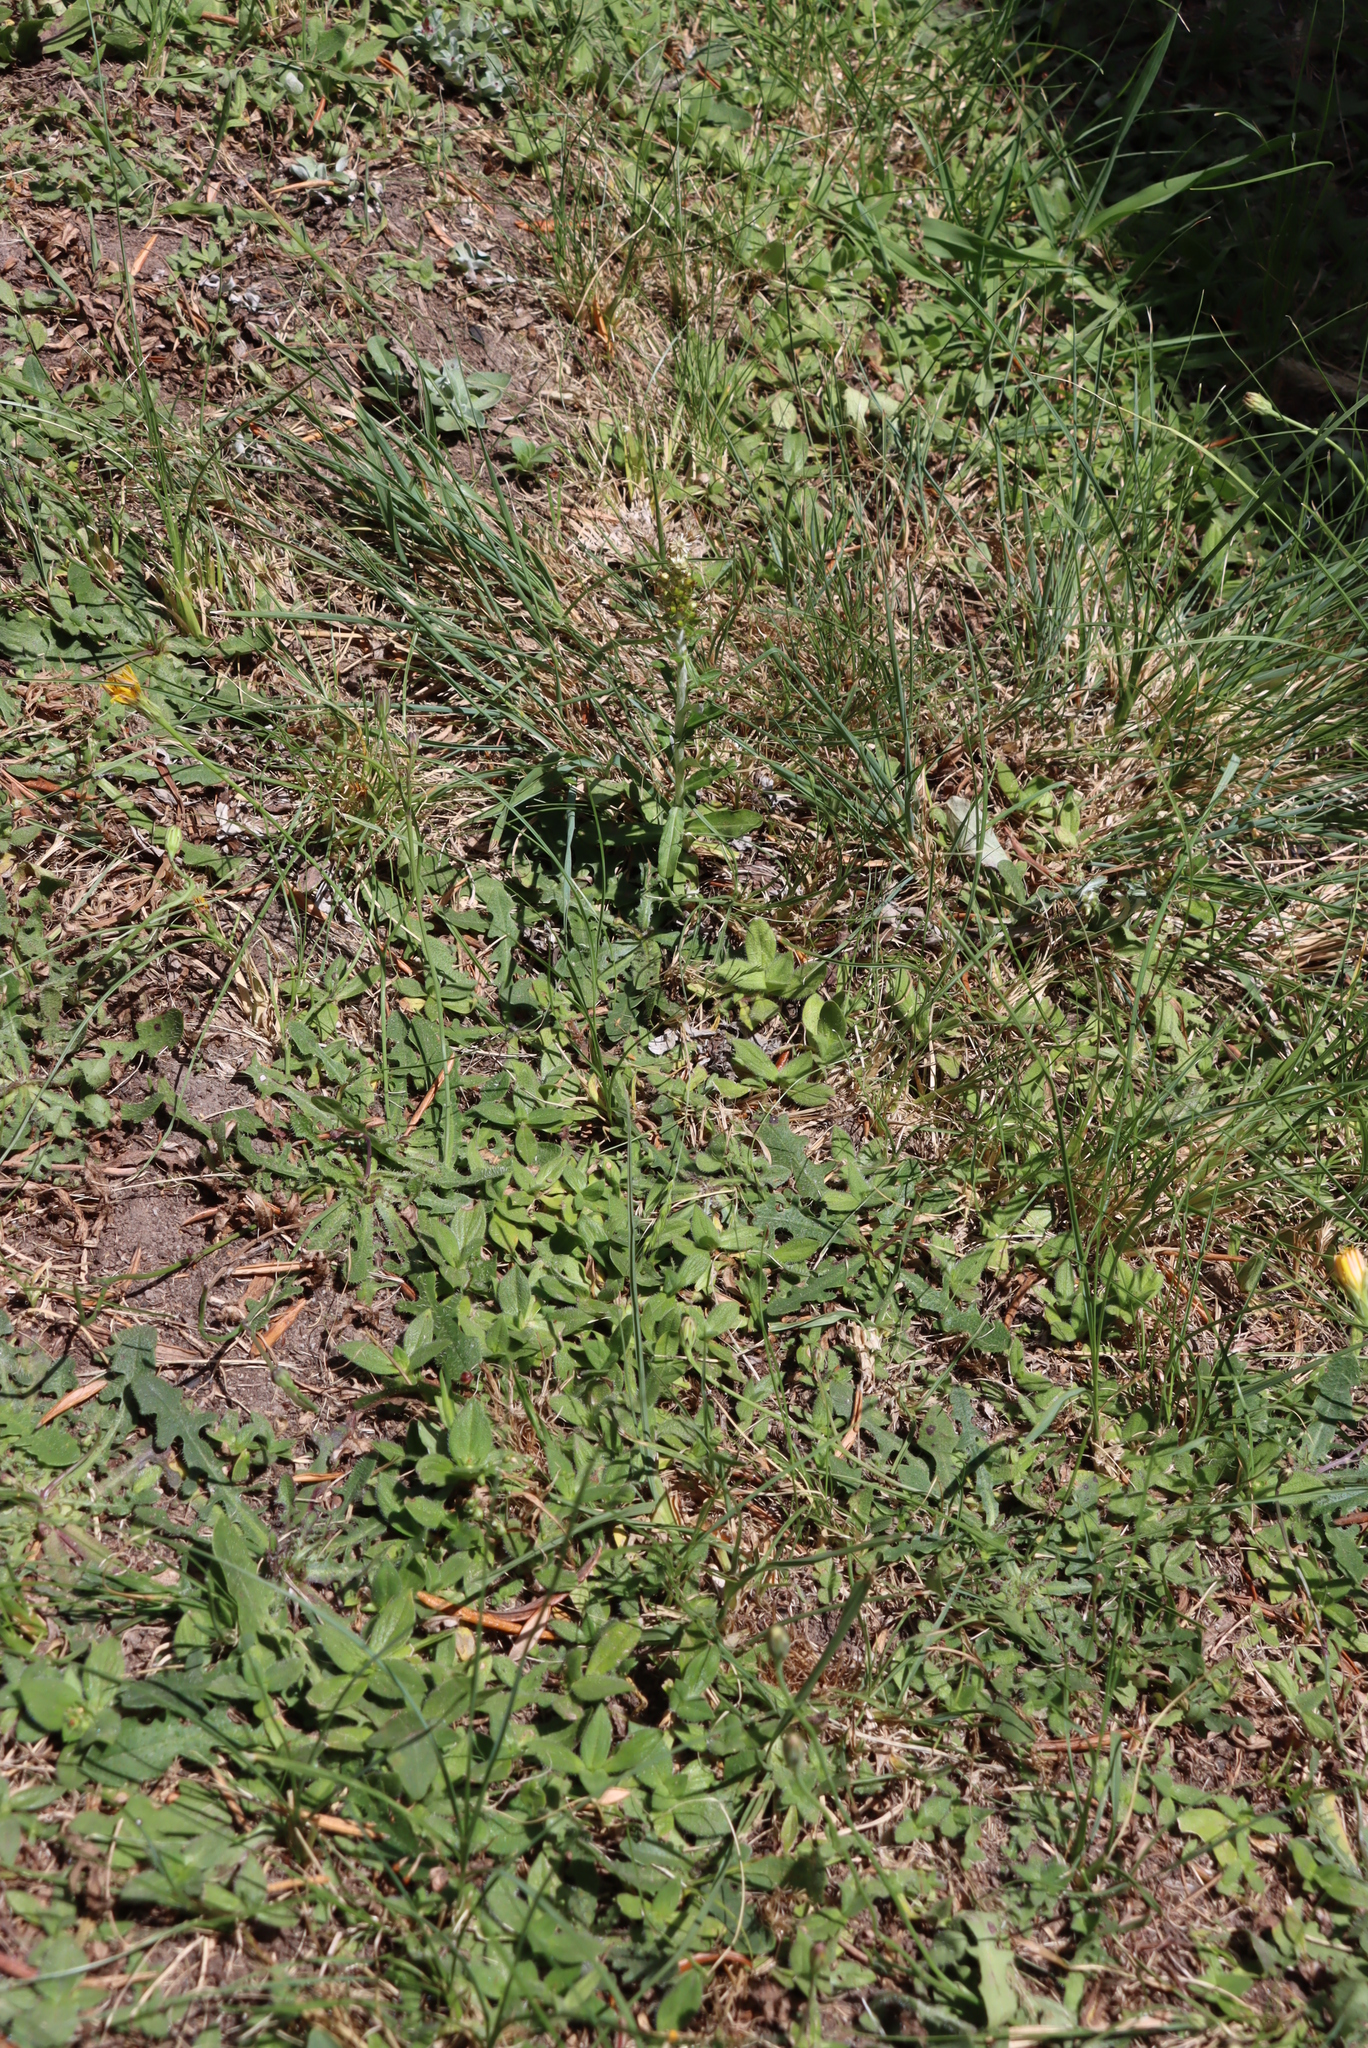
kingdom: Plantae
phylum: Tracheophyta
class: Magnoliopsida
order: Asterales
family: Asteraceae
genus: Hypochaeris
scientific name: Hypochaeris radicata
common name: Flatweed
